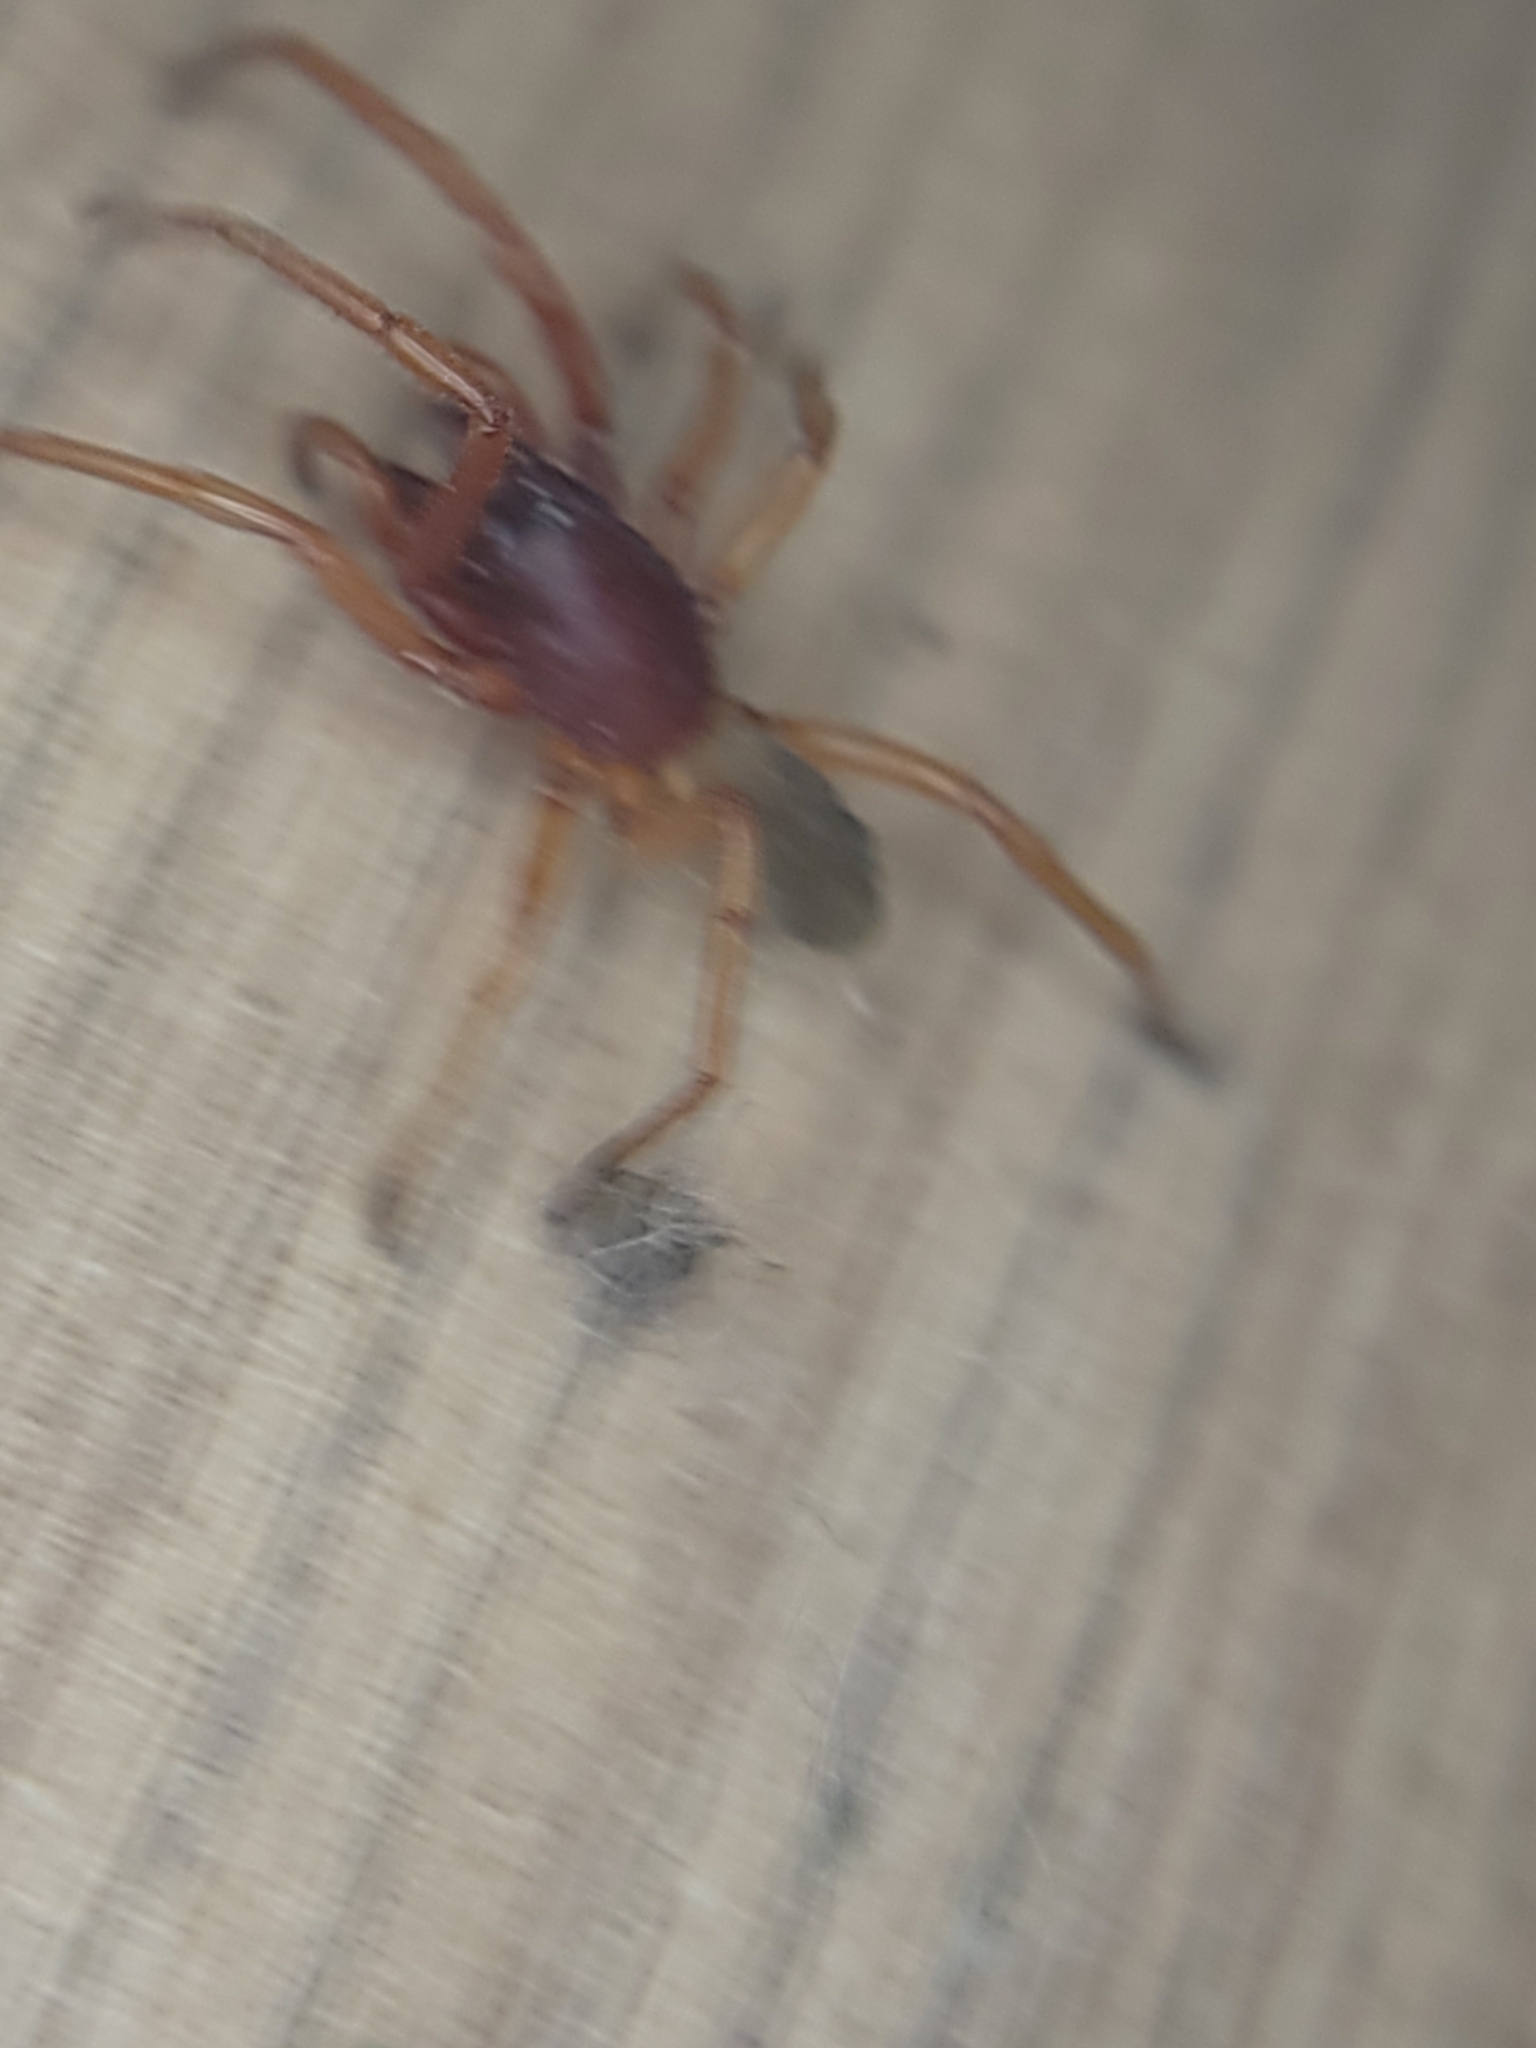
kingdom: Animalia
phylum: Arthropoda
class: Arachnida
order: Araneae
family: Dysderidae
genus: Dysdera
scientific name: Dysdera crocata
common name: Woodlouse spider
